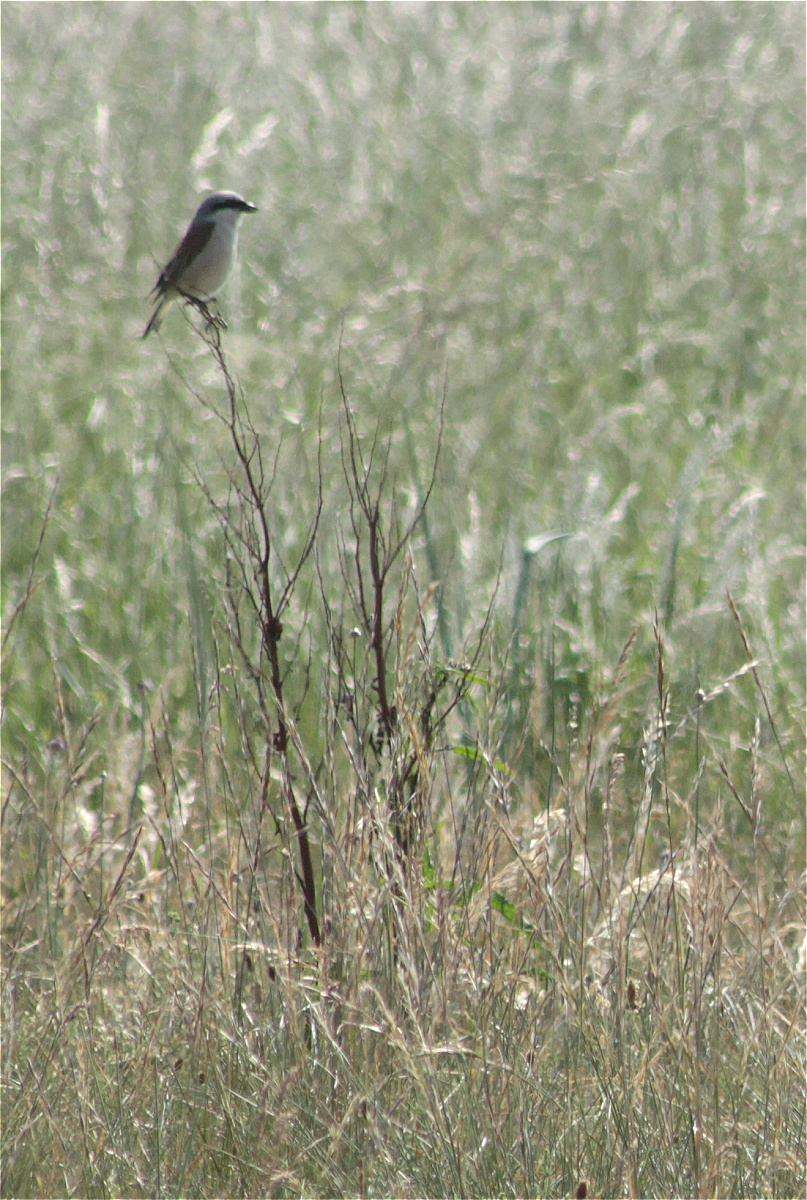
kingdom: Animalia
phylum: Chordata
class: Aves
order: Passeriformes
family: Laniidae
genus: Lanius
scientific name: Lanius collurio
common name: Red-backed shrike
